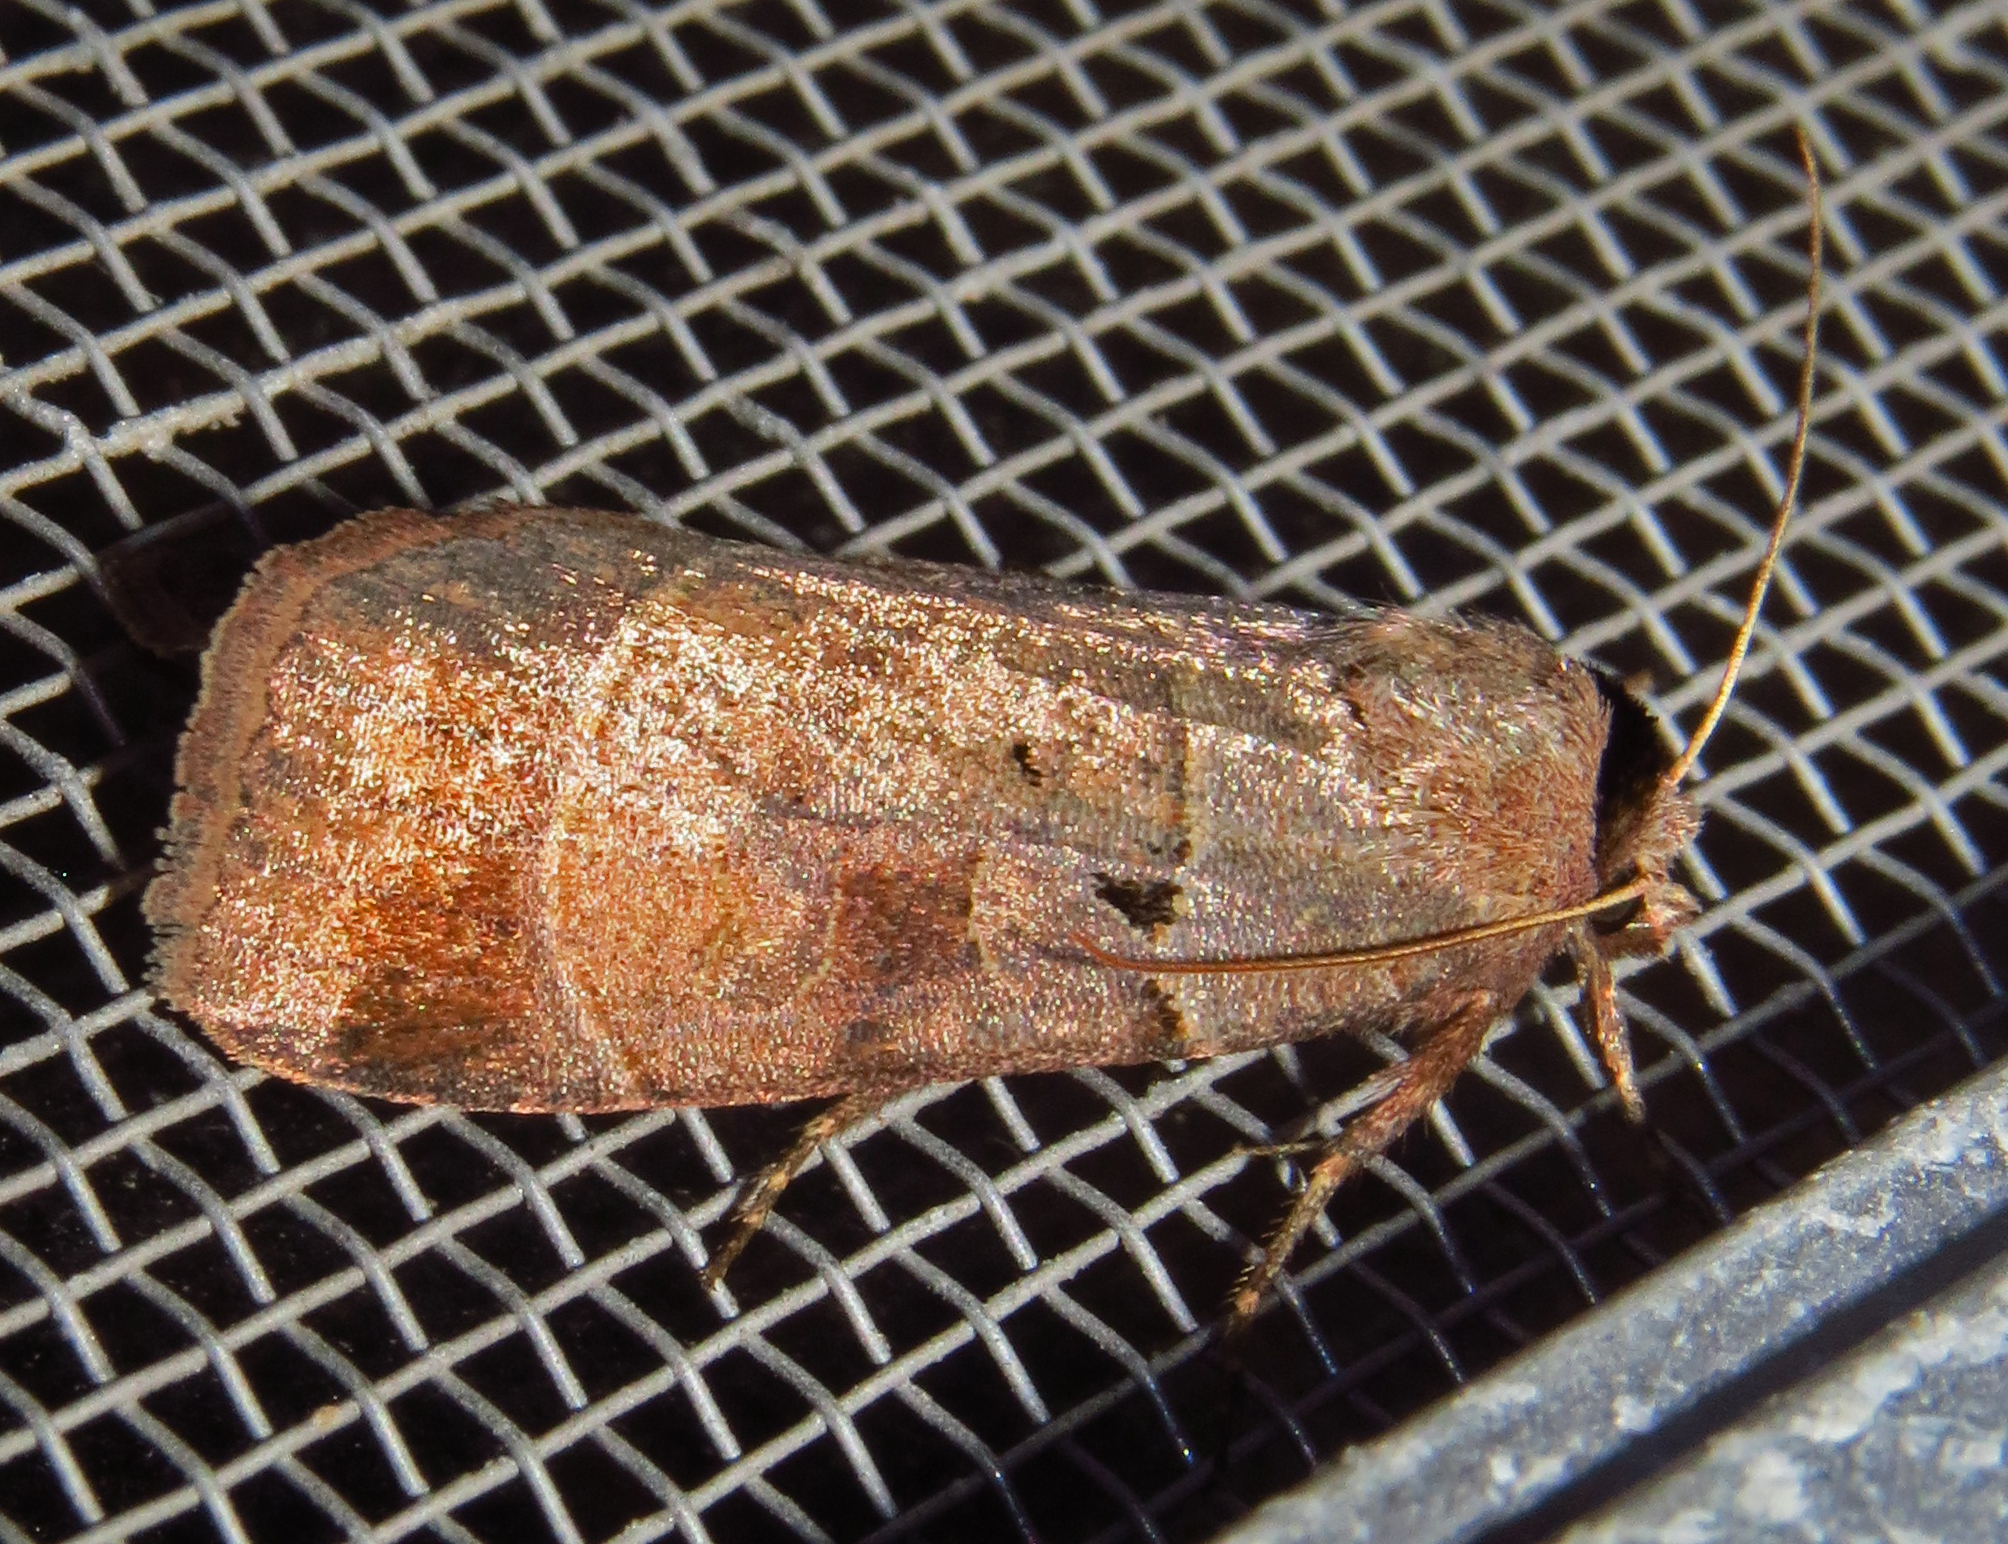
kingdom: Animalia
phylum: Arthropoda
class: Insecta
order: Lepidoptera
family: Noctuidae
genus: Agnorisma
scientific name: Agnorisma badinodis
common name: Pale-banded dart
